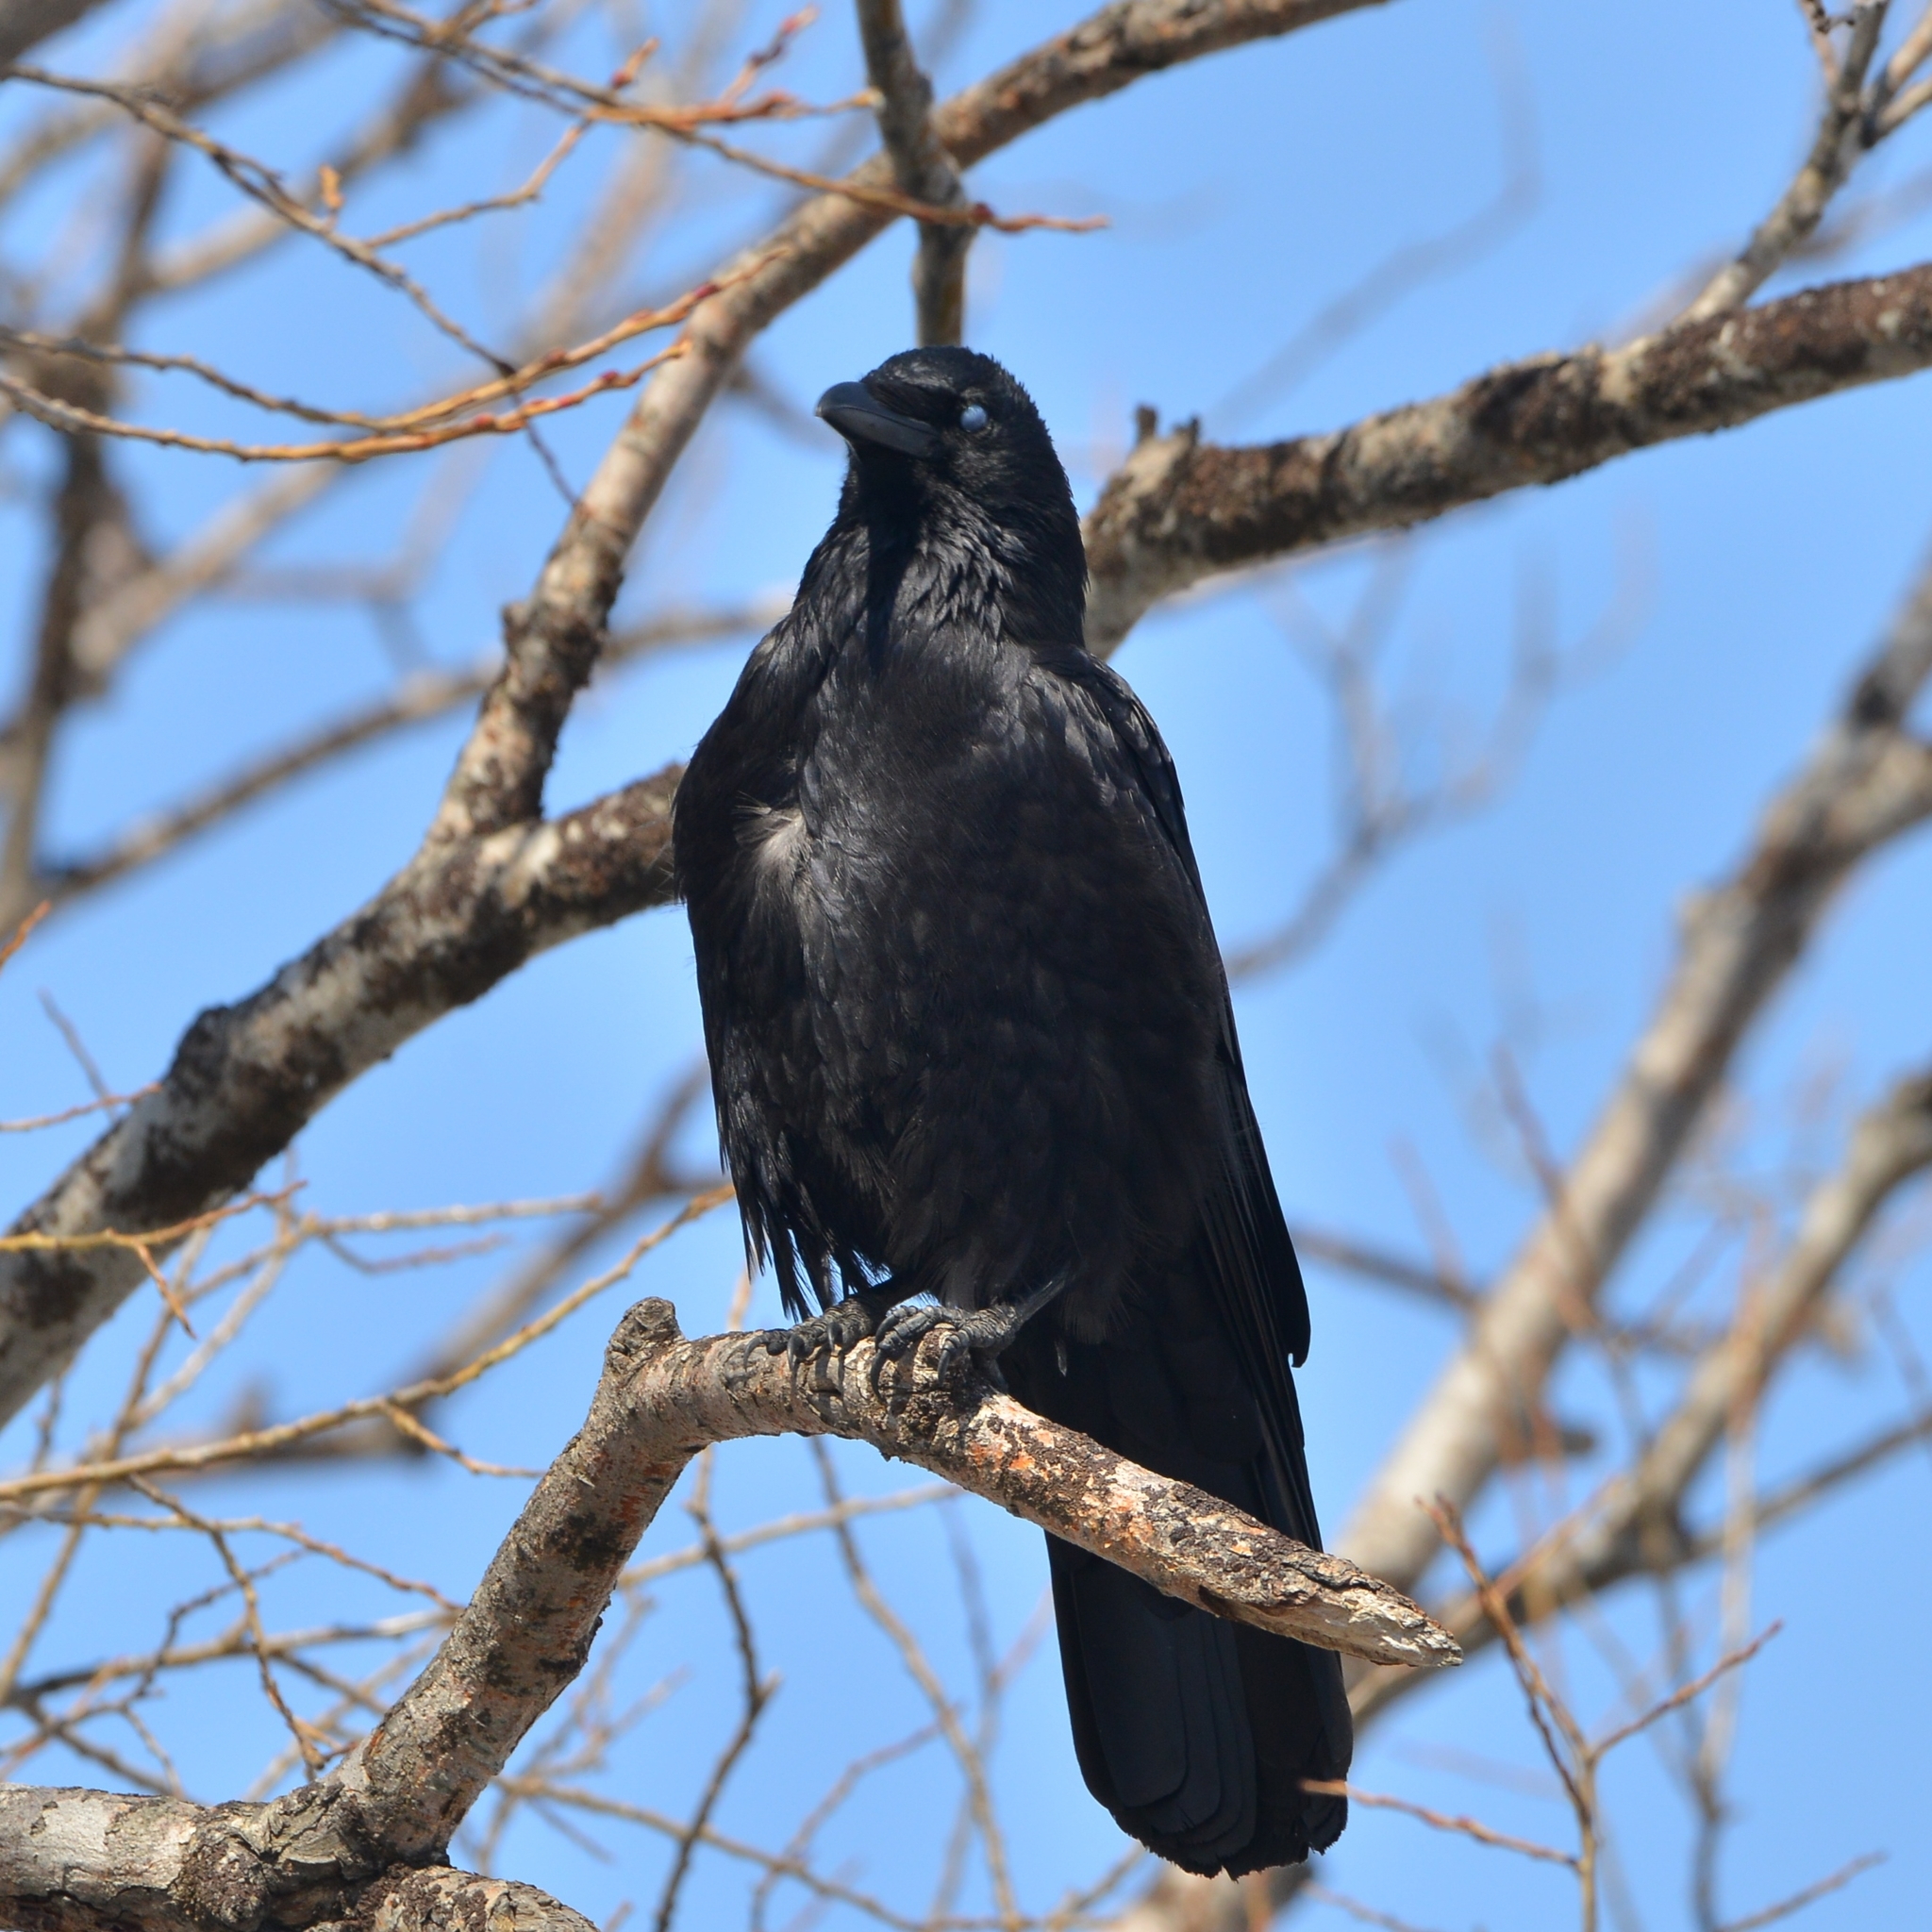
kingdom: Animalia
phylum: Chordata
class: Aves
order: Passeriformes
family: Corvidae
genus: Corvus
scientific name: Corvus corone
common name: Carrion crow
